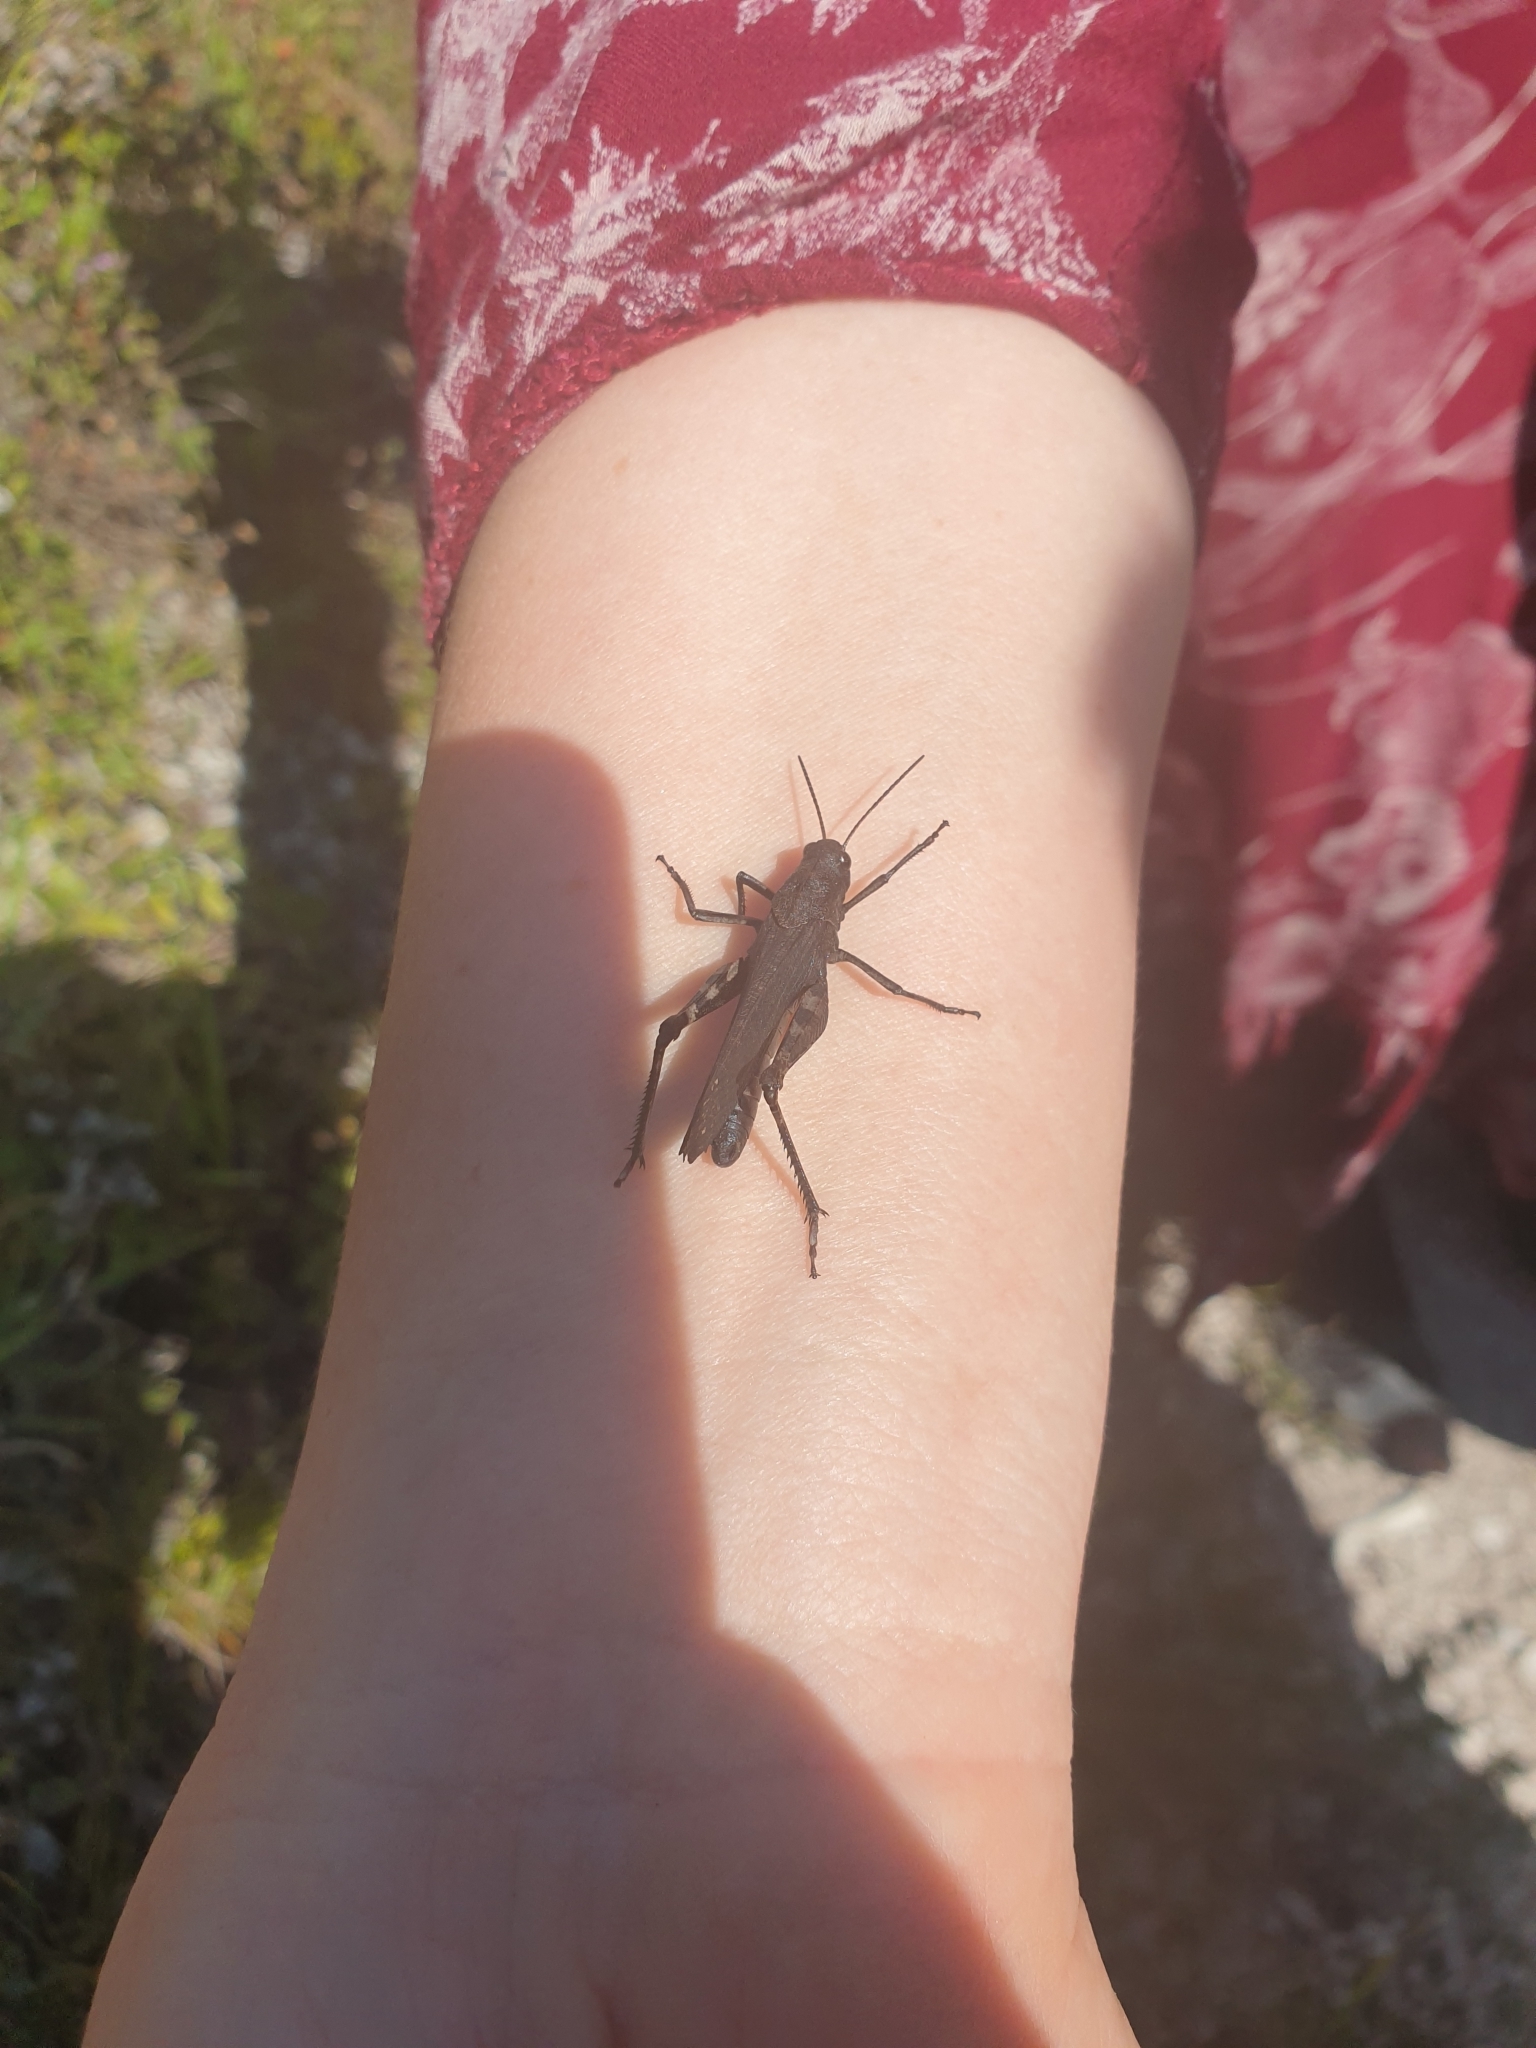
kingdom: Animalia
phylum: Arthropoda
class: Insecta
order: Orthoptera
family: Acrididae
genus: Psophus
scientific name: Psophus stridulus
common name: Rattle grasshopper
